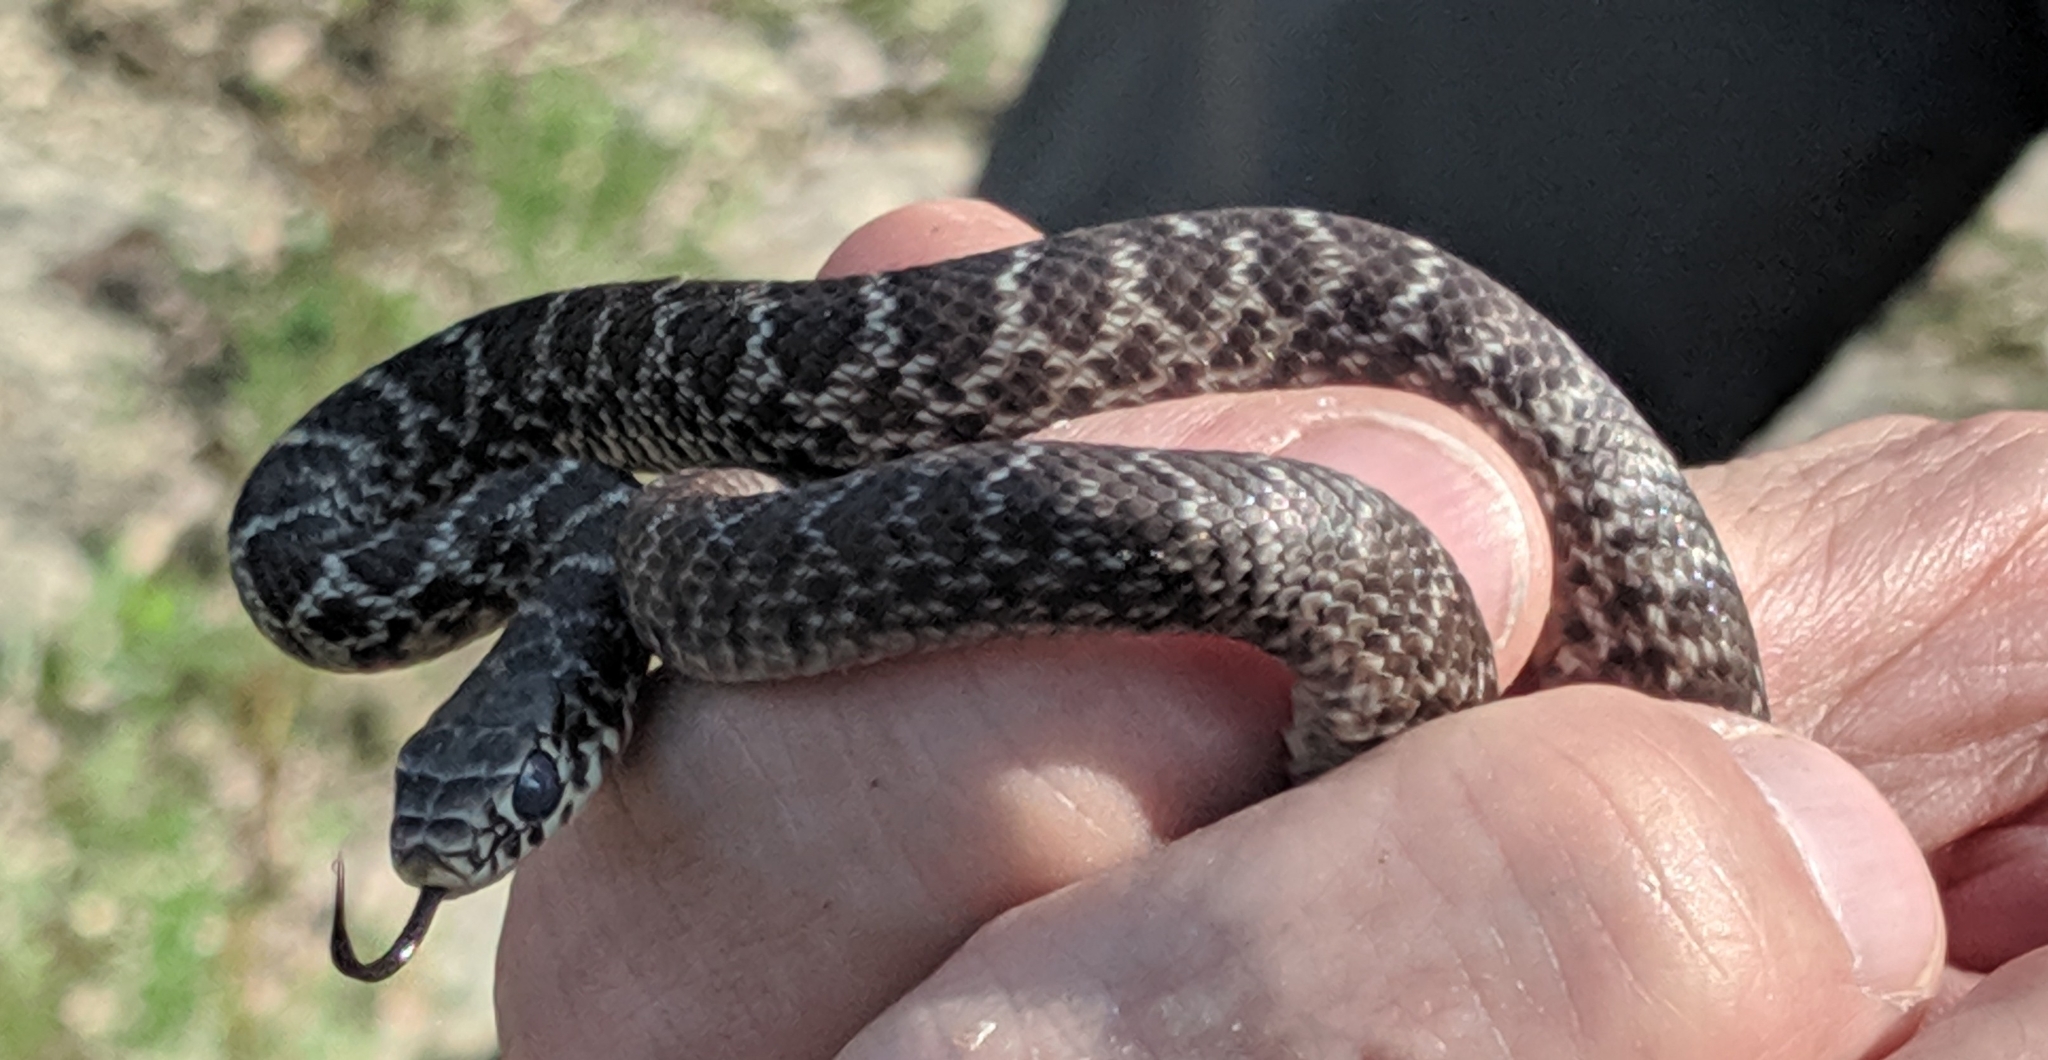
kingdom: Animalia
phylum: Chordata
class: Squamata
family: Colubridae
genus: Coluber
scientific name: Coluber constrictor
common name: Eastern racer
